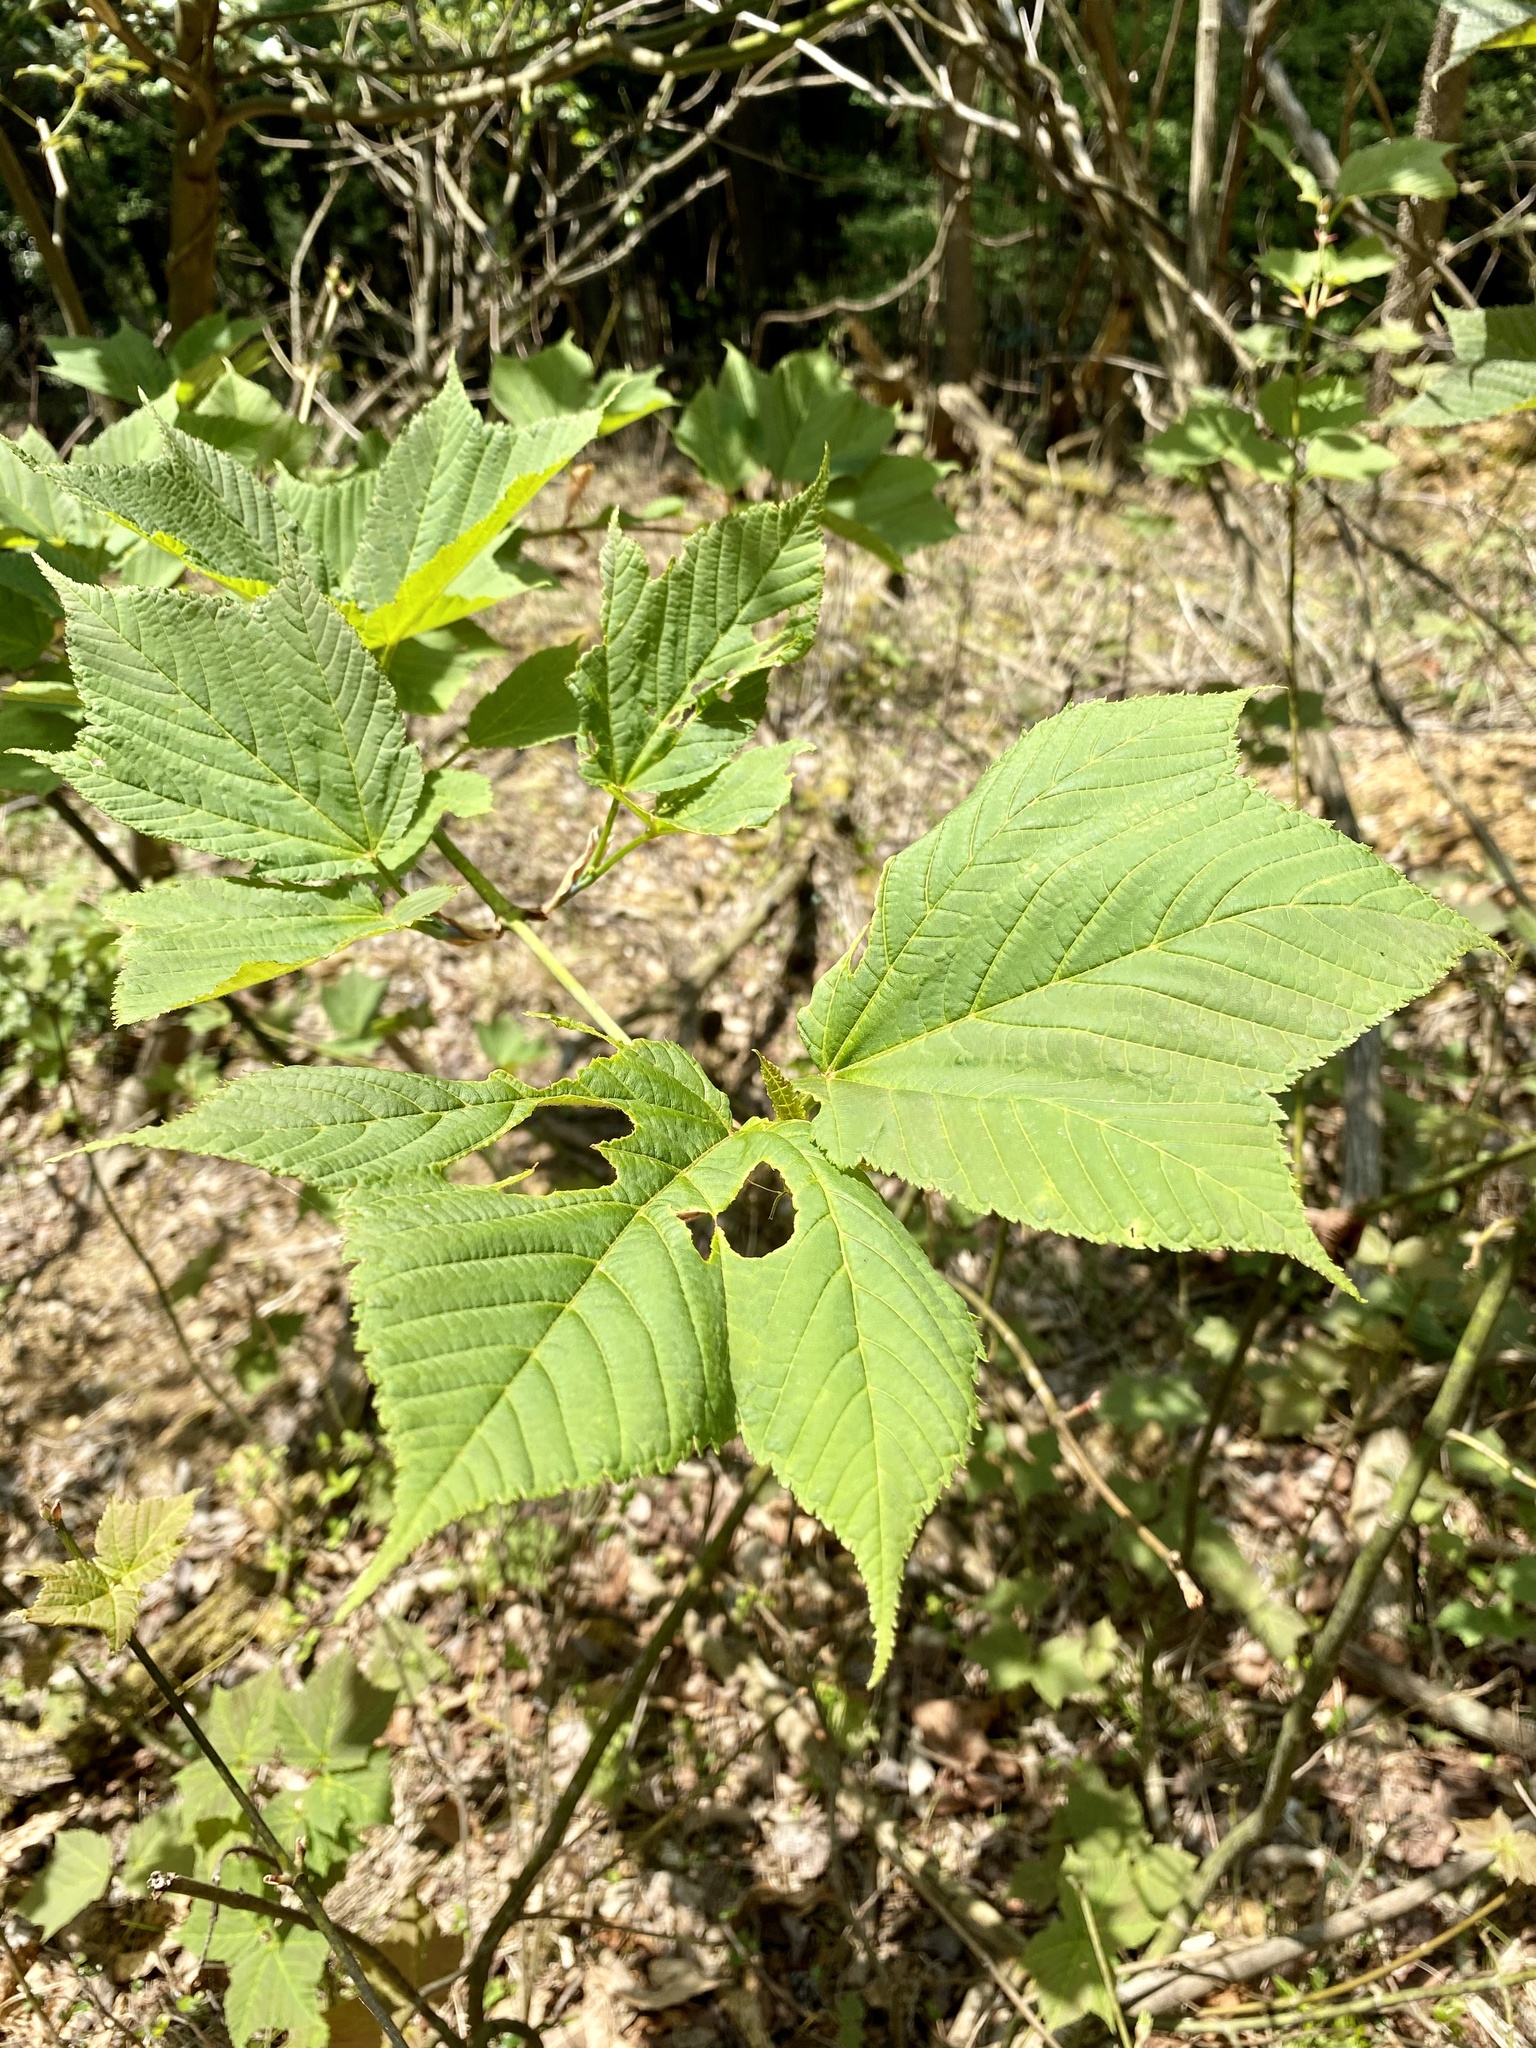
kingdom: Plantae
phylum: Tracheophyta
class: Magnoliopsida
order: Sapindales
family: Sapindaceae
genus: Acer
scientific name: Acer rufinerve
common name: Red veined maple
